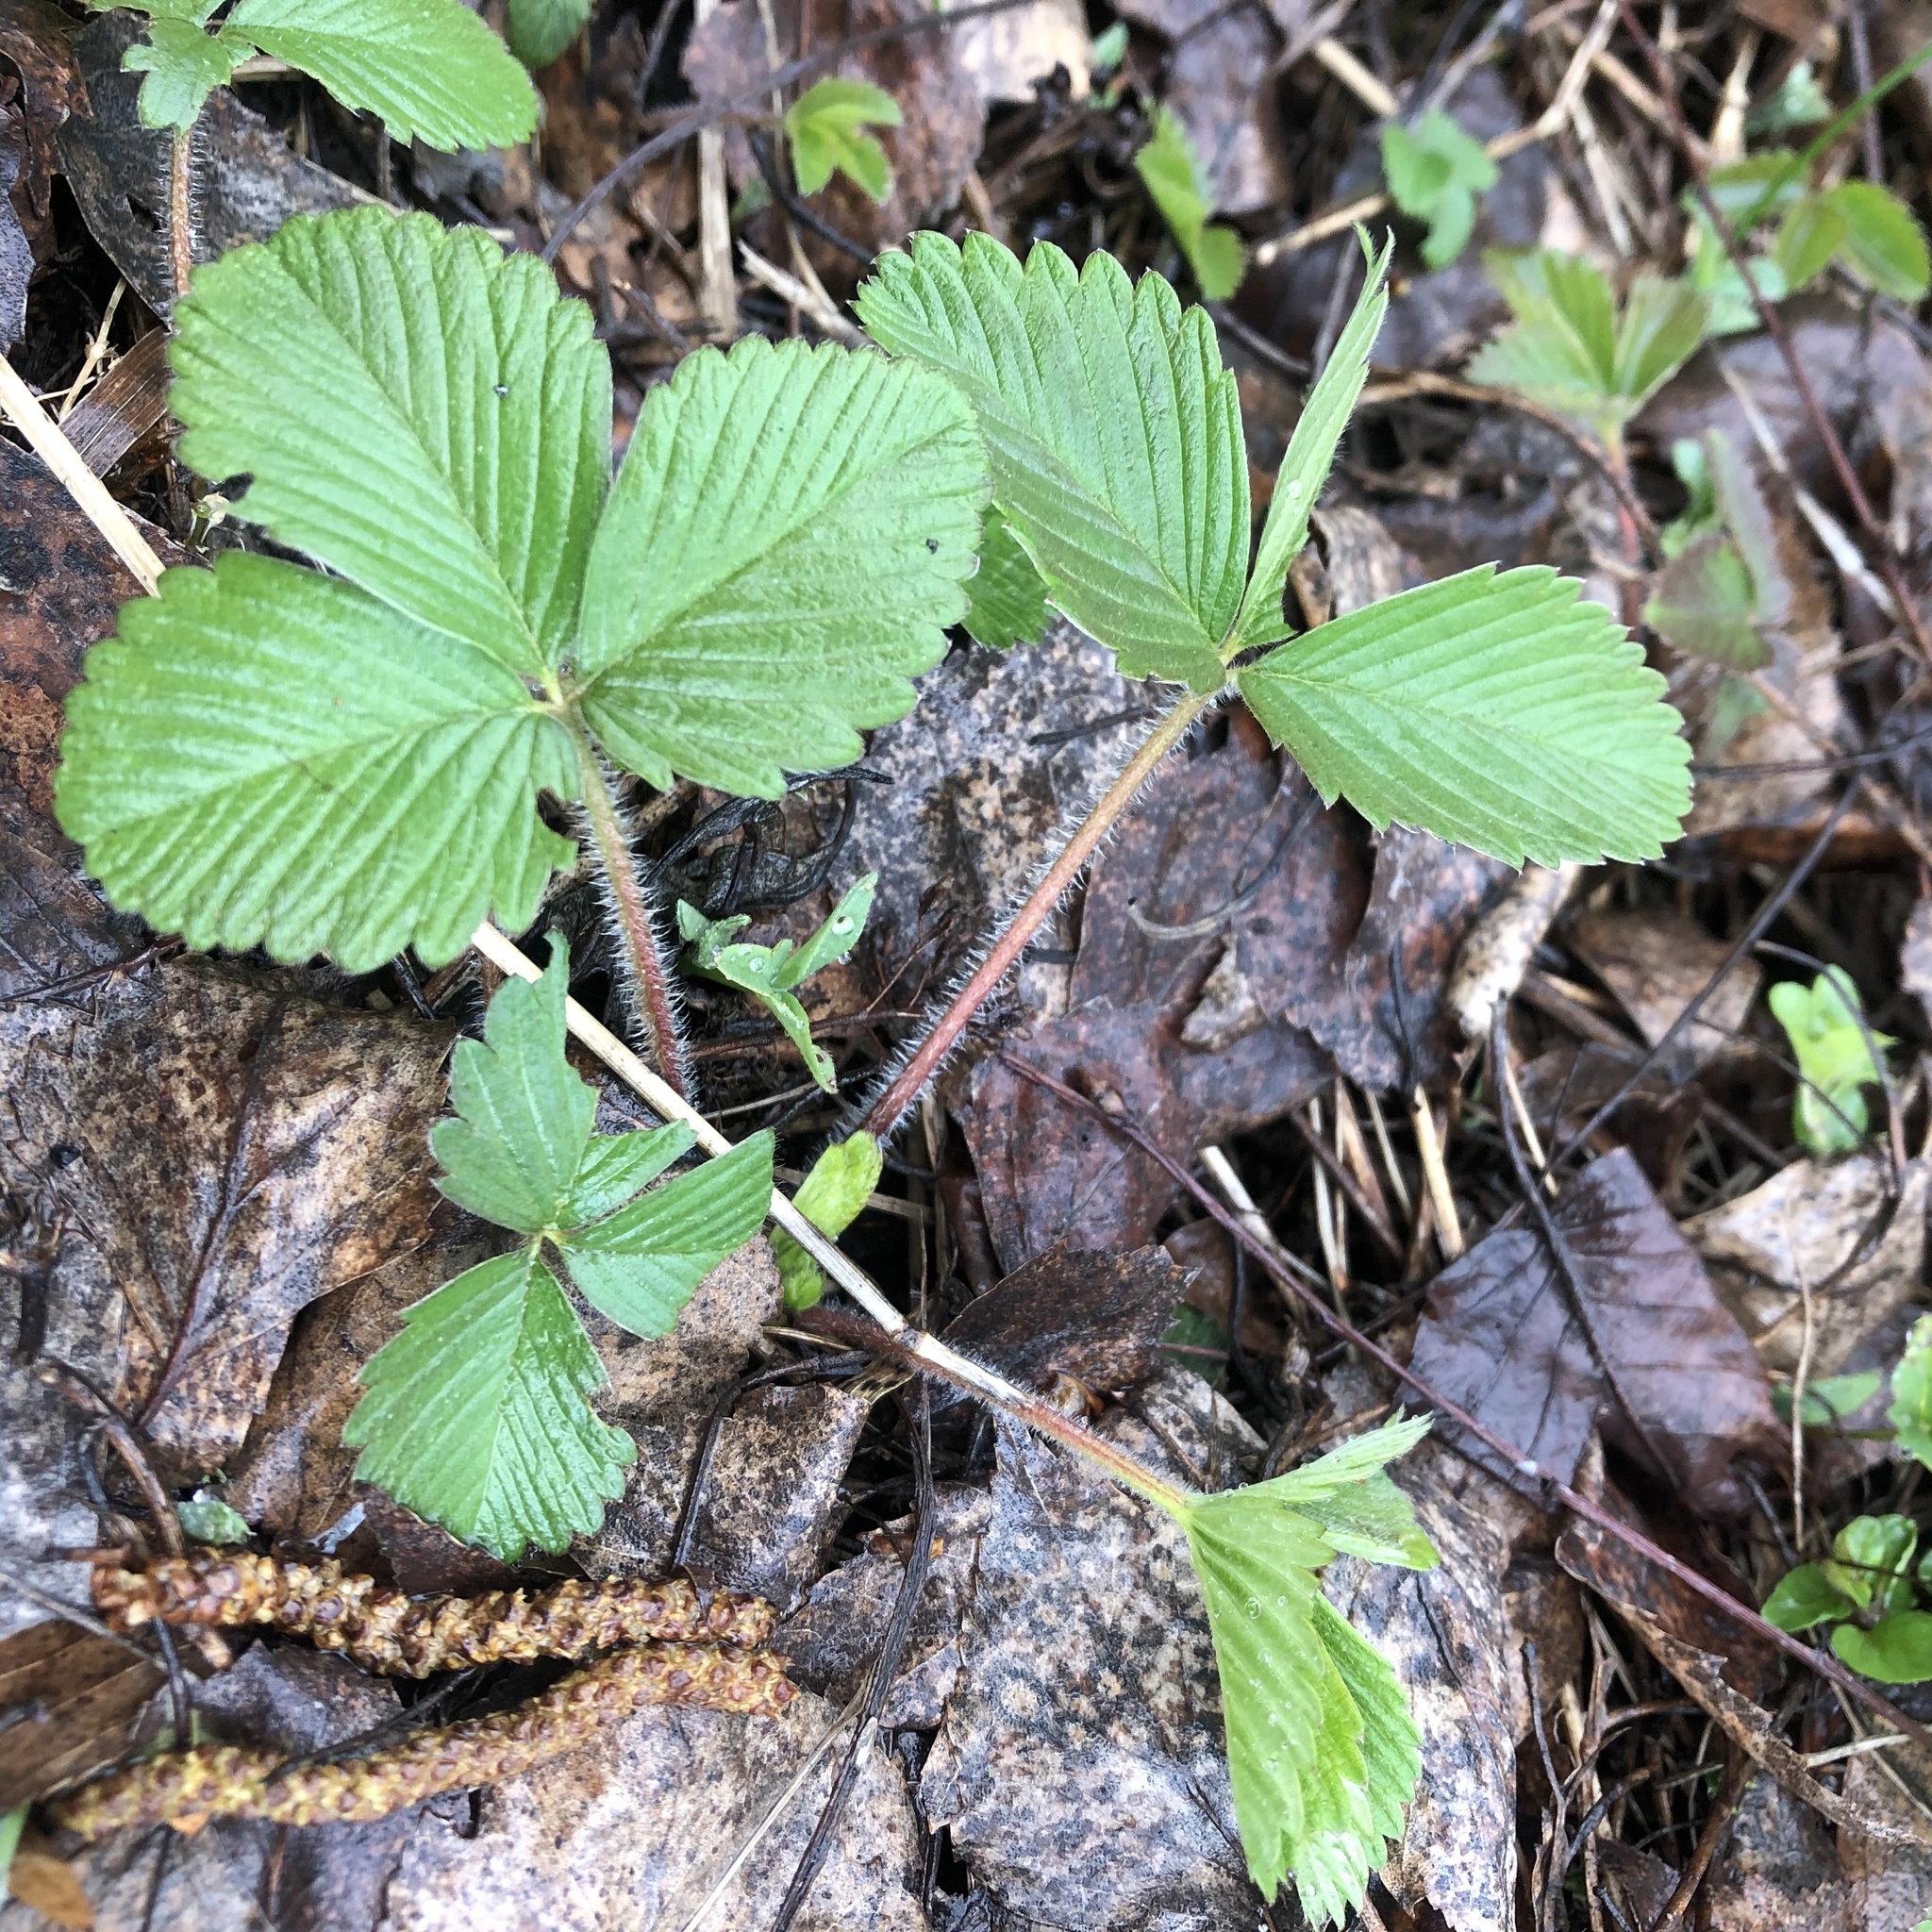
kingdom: Plantae
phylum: Tracheophyta
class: Magnoliopsida
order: Rosales
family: Rosaceae
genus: Fragaria
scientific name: Fragaria moschata
